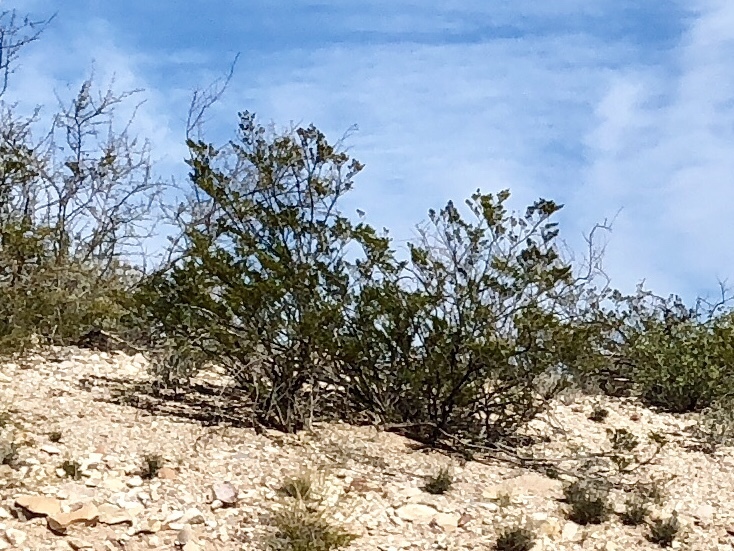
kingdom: Plantae
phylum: Tracheophyta
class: Magnoliopsida
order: Zygophyllales
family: Zygophyllaceae
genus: Larrea
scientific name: Larrea tridentata
